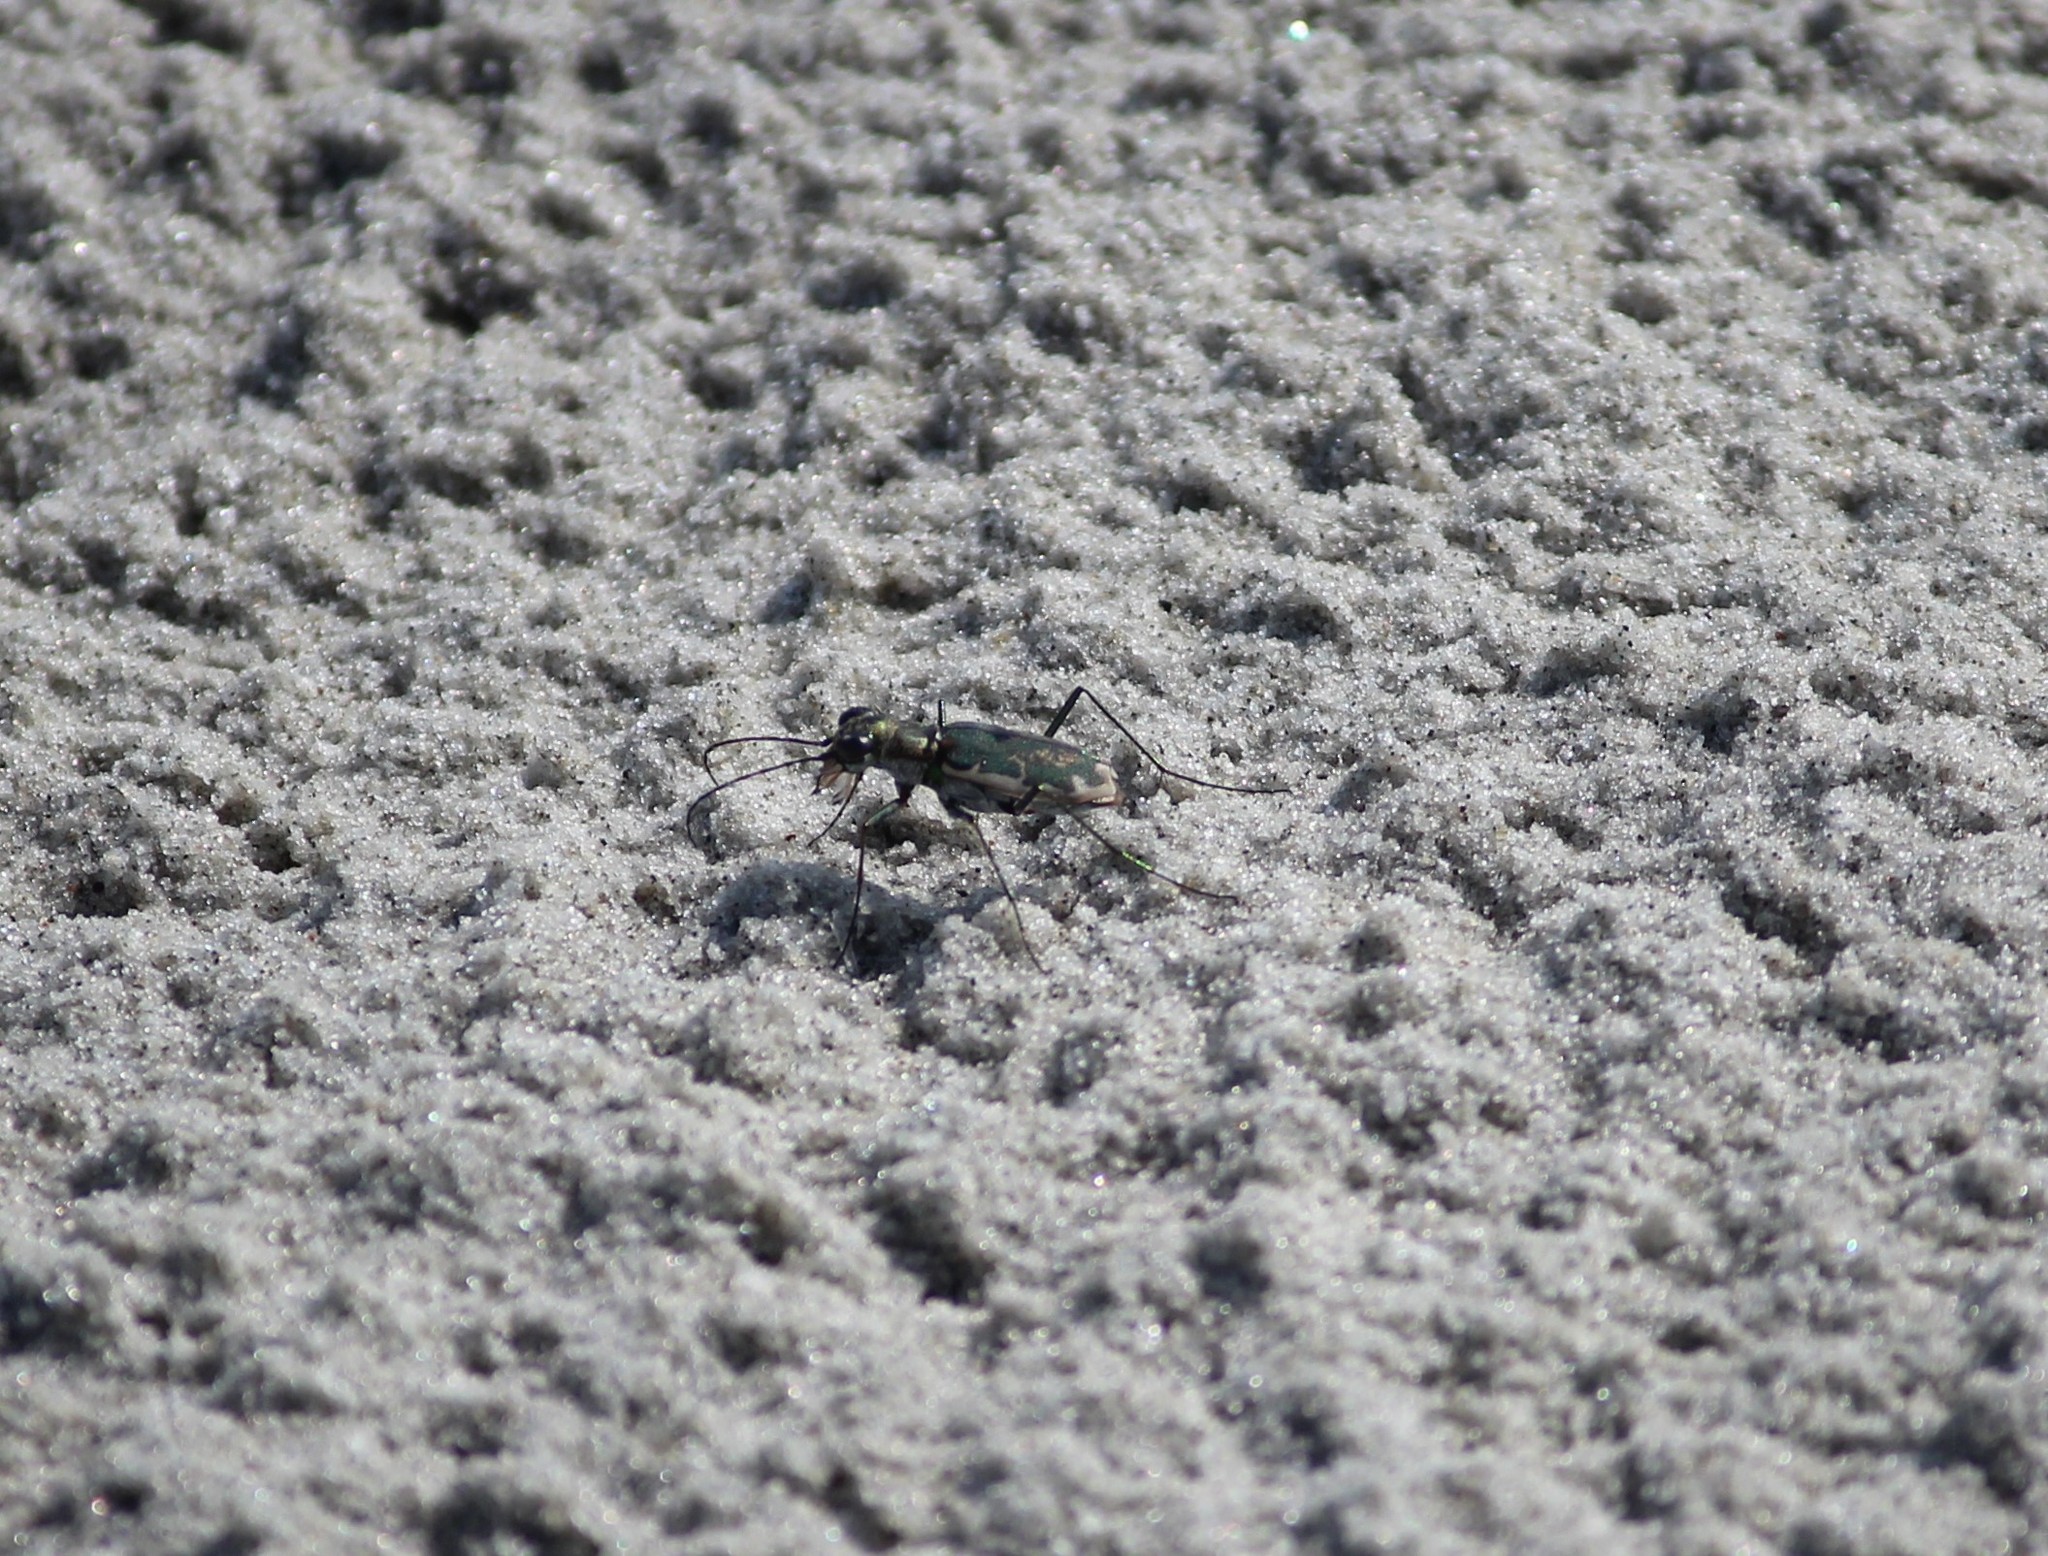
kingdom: Animalia
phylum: Arthropoda
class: Insecta
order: Coleoptera
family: Carabidae
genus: Ellipsoptera
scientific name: Ellipsoptera marginata
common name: Margined tiger beetle
